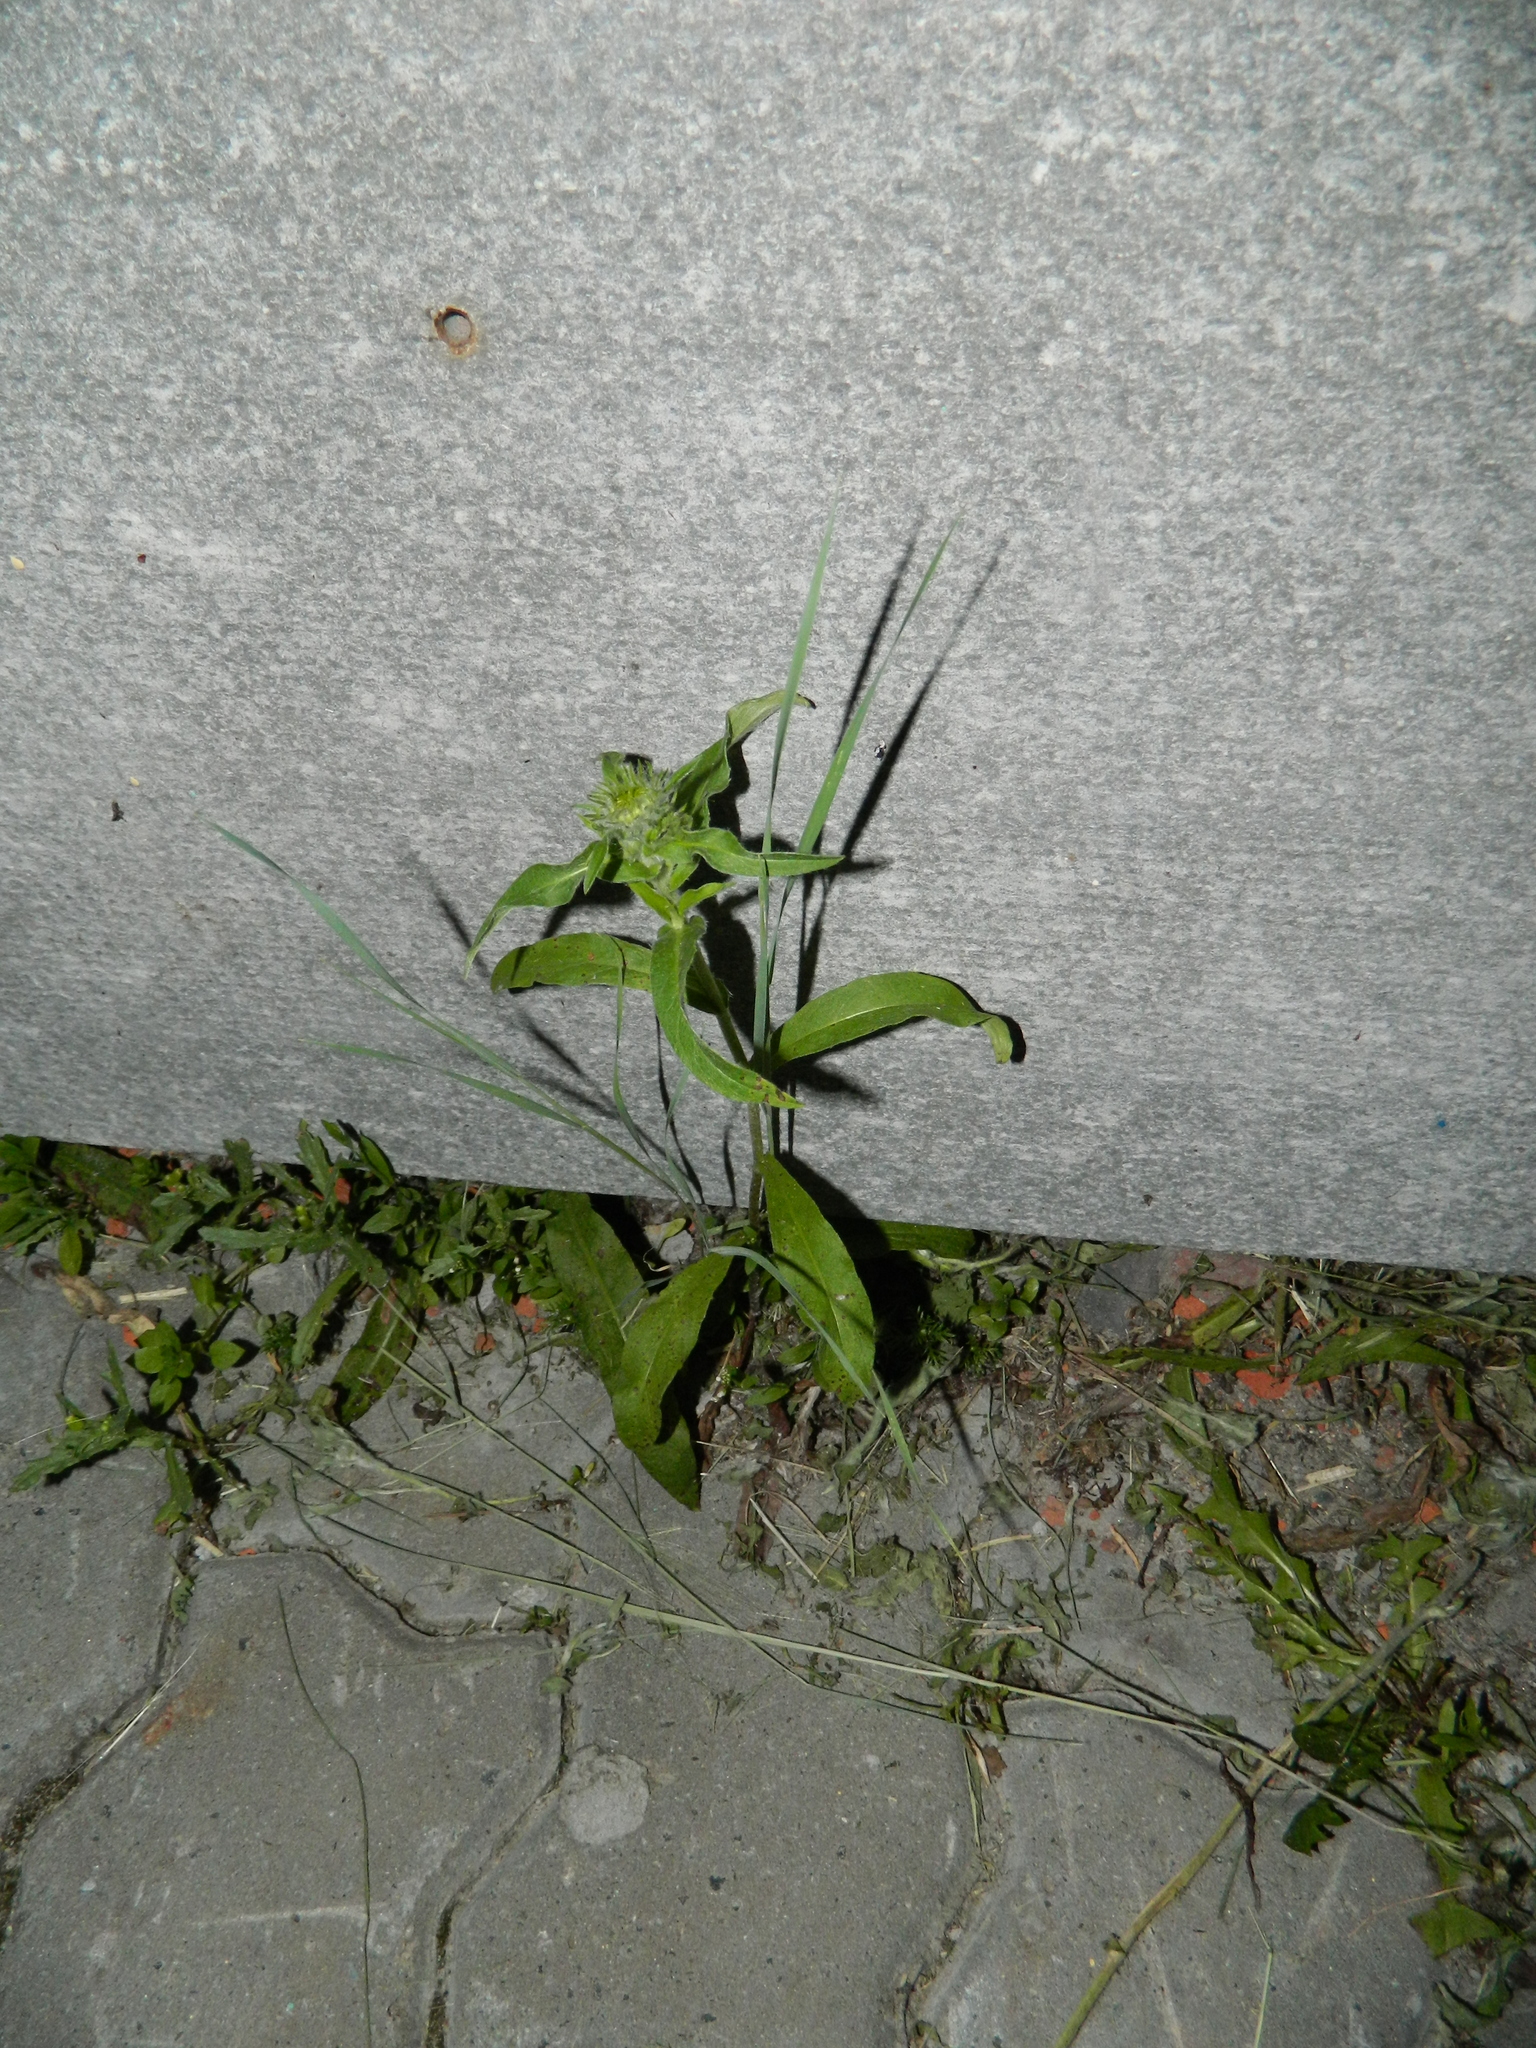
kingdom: Plantae
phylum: Tracheophyta
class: Magnoliopsida
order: Asterales
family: Asteraceae
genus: Pentanema
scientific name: Pentanema britannicum
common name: British elecampane
